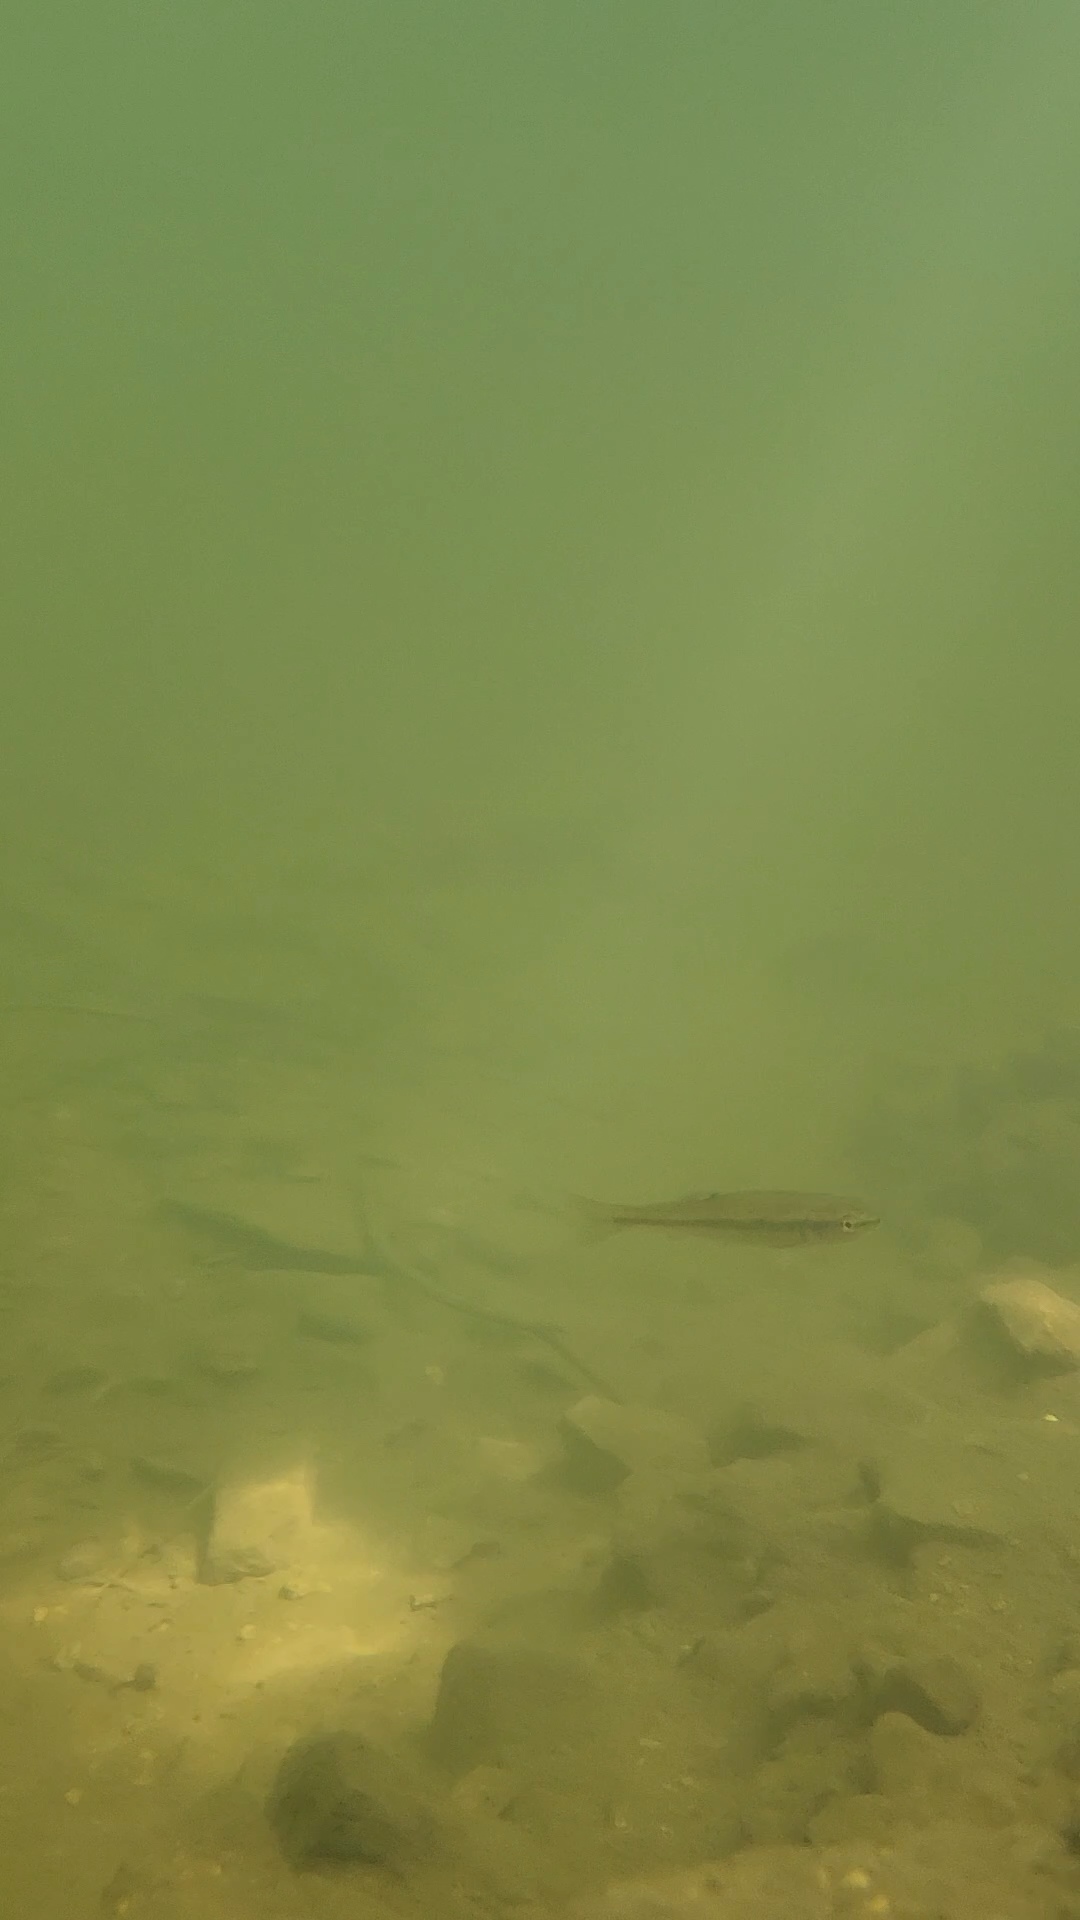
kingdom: Animalia
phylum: Chordata
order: Cypriniformes
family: Cyprinidae
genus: Semotilus
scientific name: Semotilus atromaculatus
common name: Creek chub
